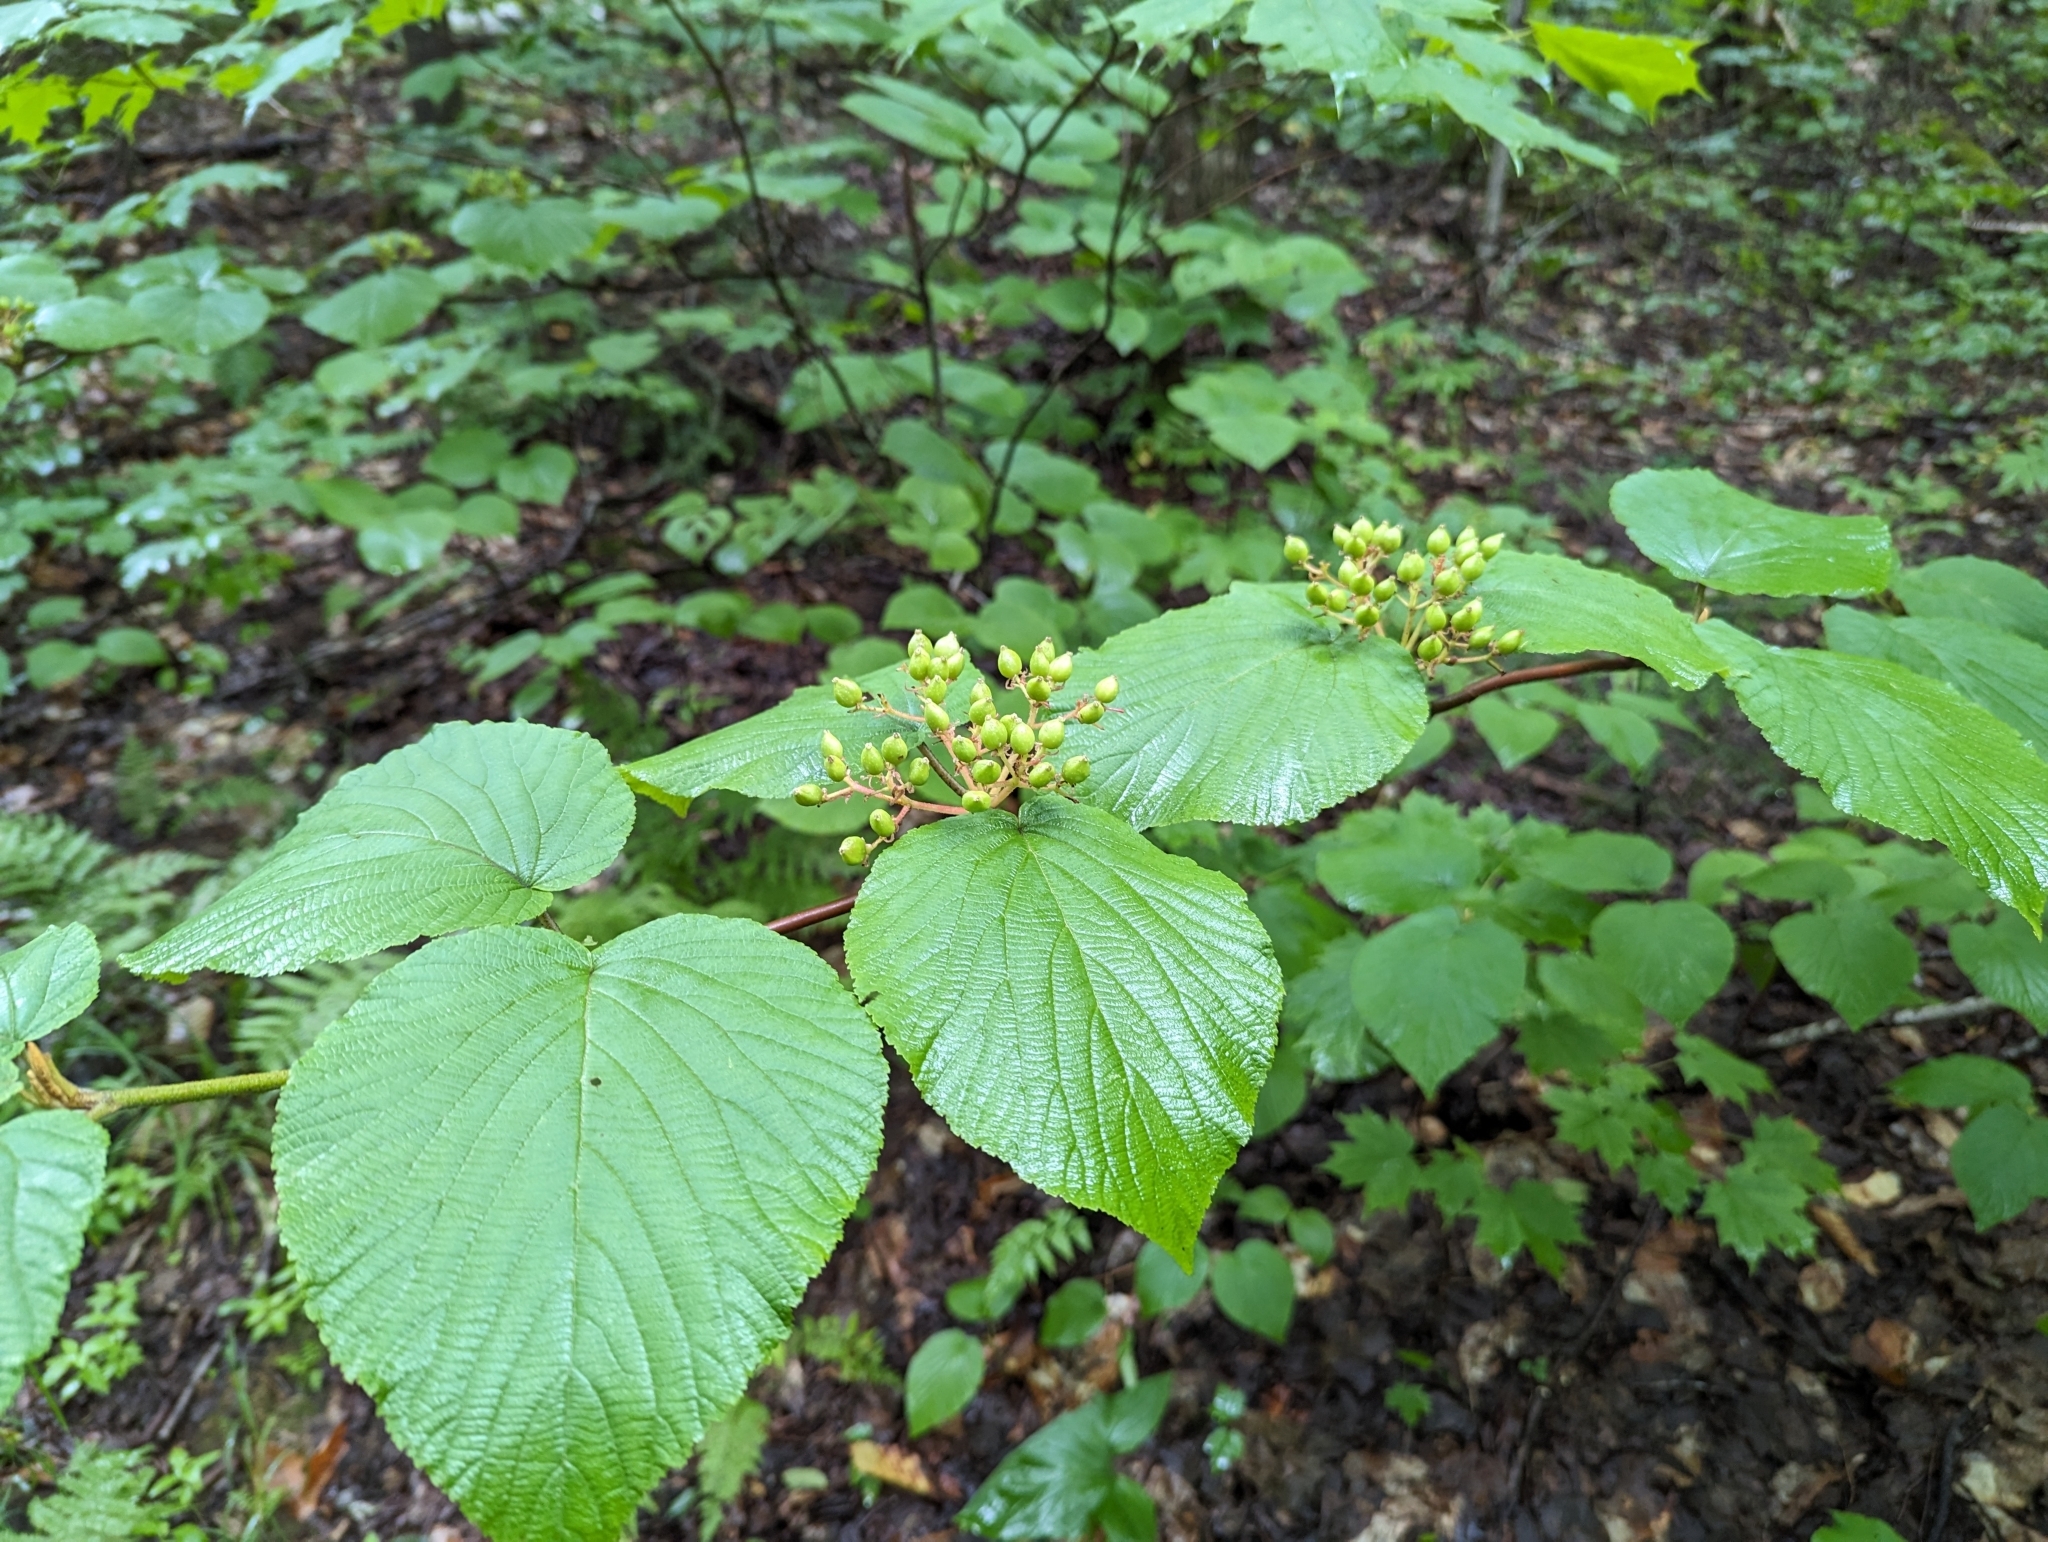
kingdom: Plantae
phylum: Tracheophyta
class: Magnoliopsida
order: Dipsacales
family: Viburnaceae
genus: Viburnum
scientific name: Viburnum lantanoides
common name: Hobblebush
